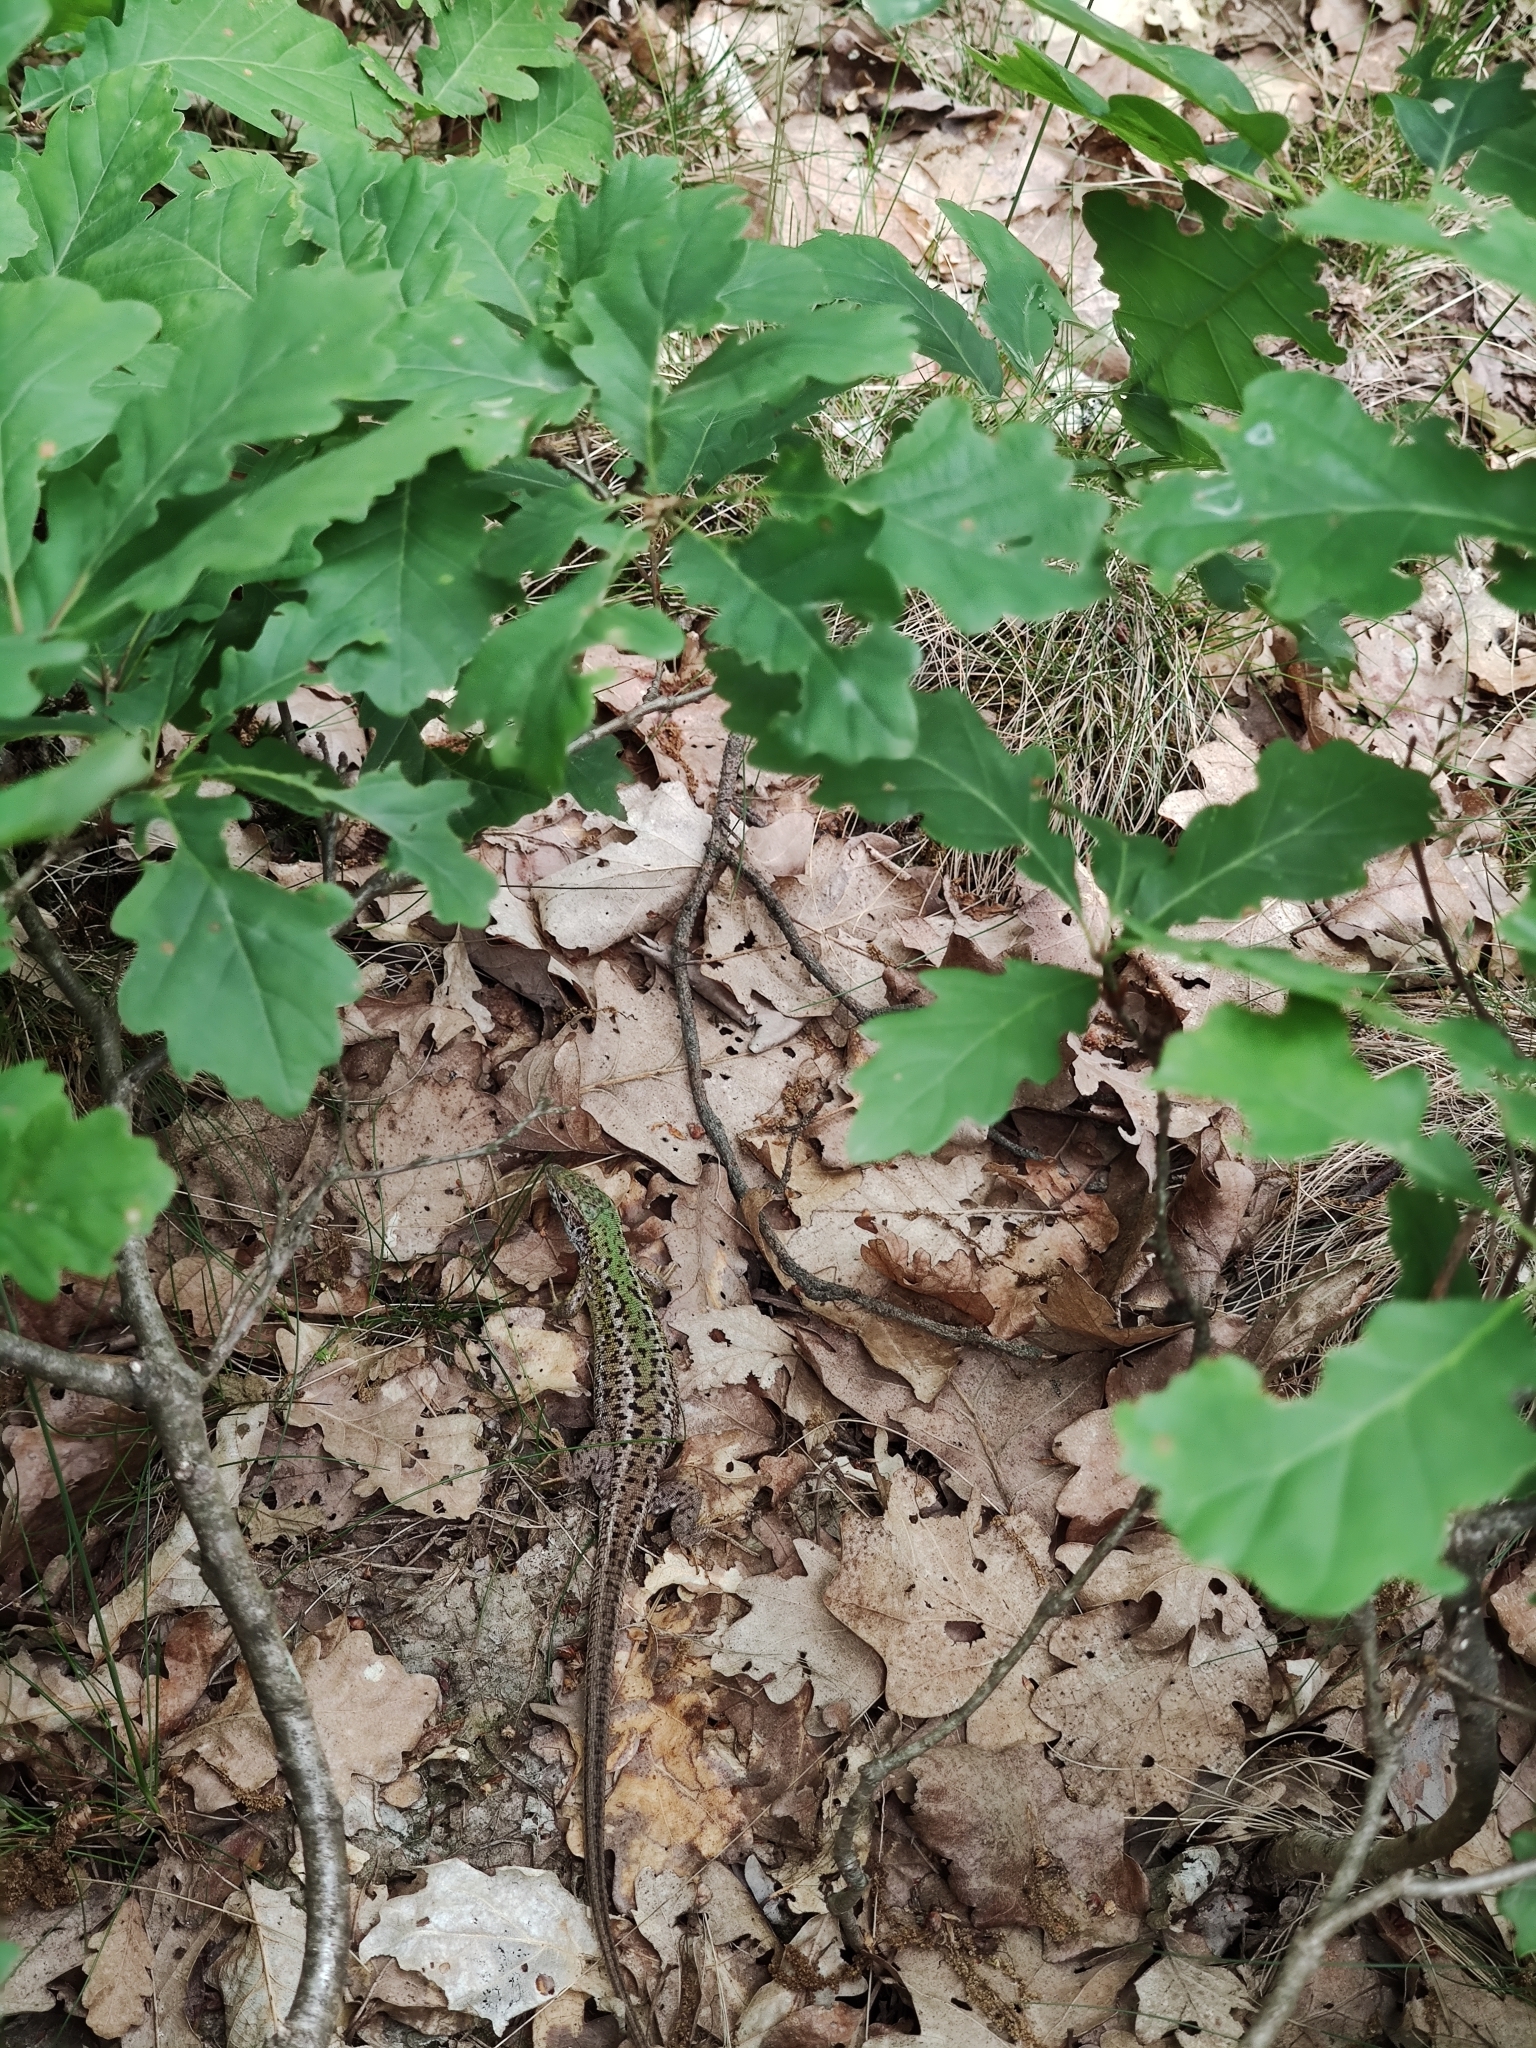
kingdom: Animalia
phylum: Chordata
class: Squamata
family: Lacertidae
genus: Lacerta
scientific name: Lacerta viridis
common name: European green lizard
